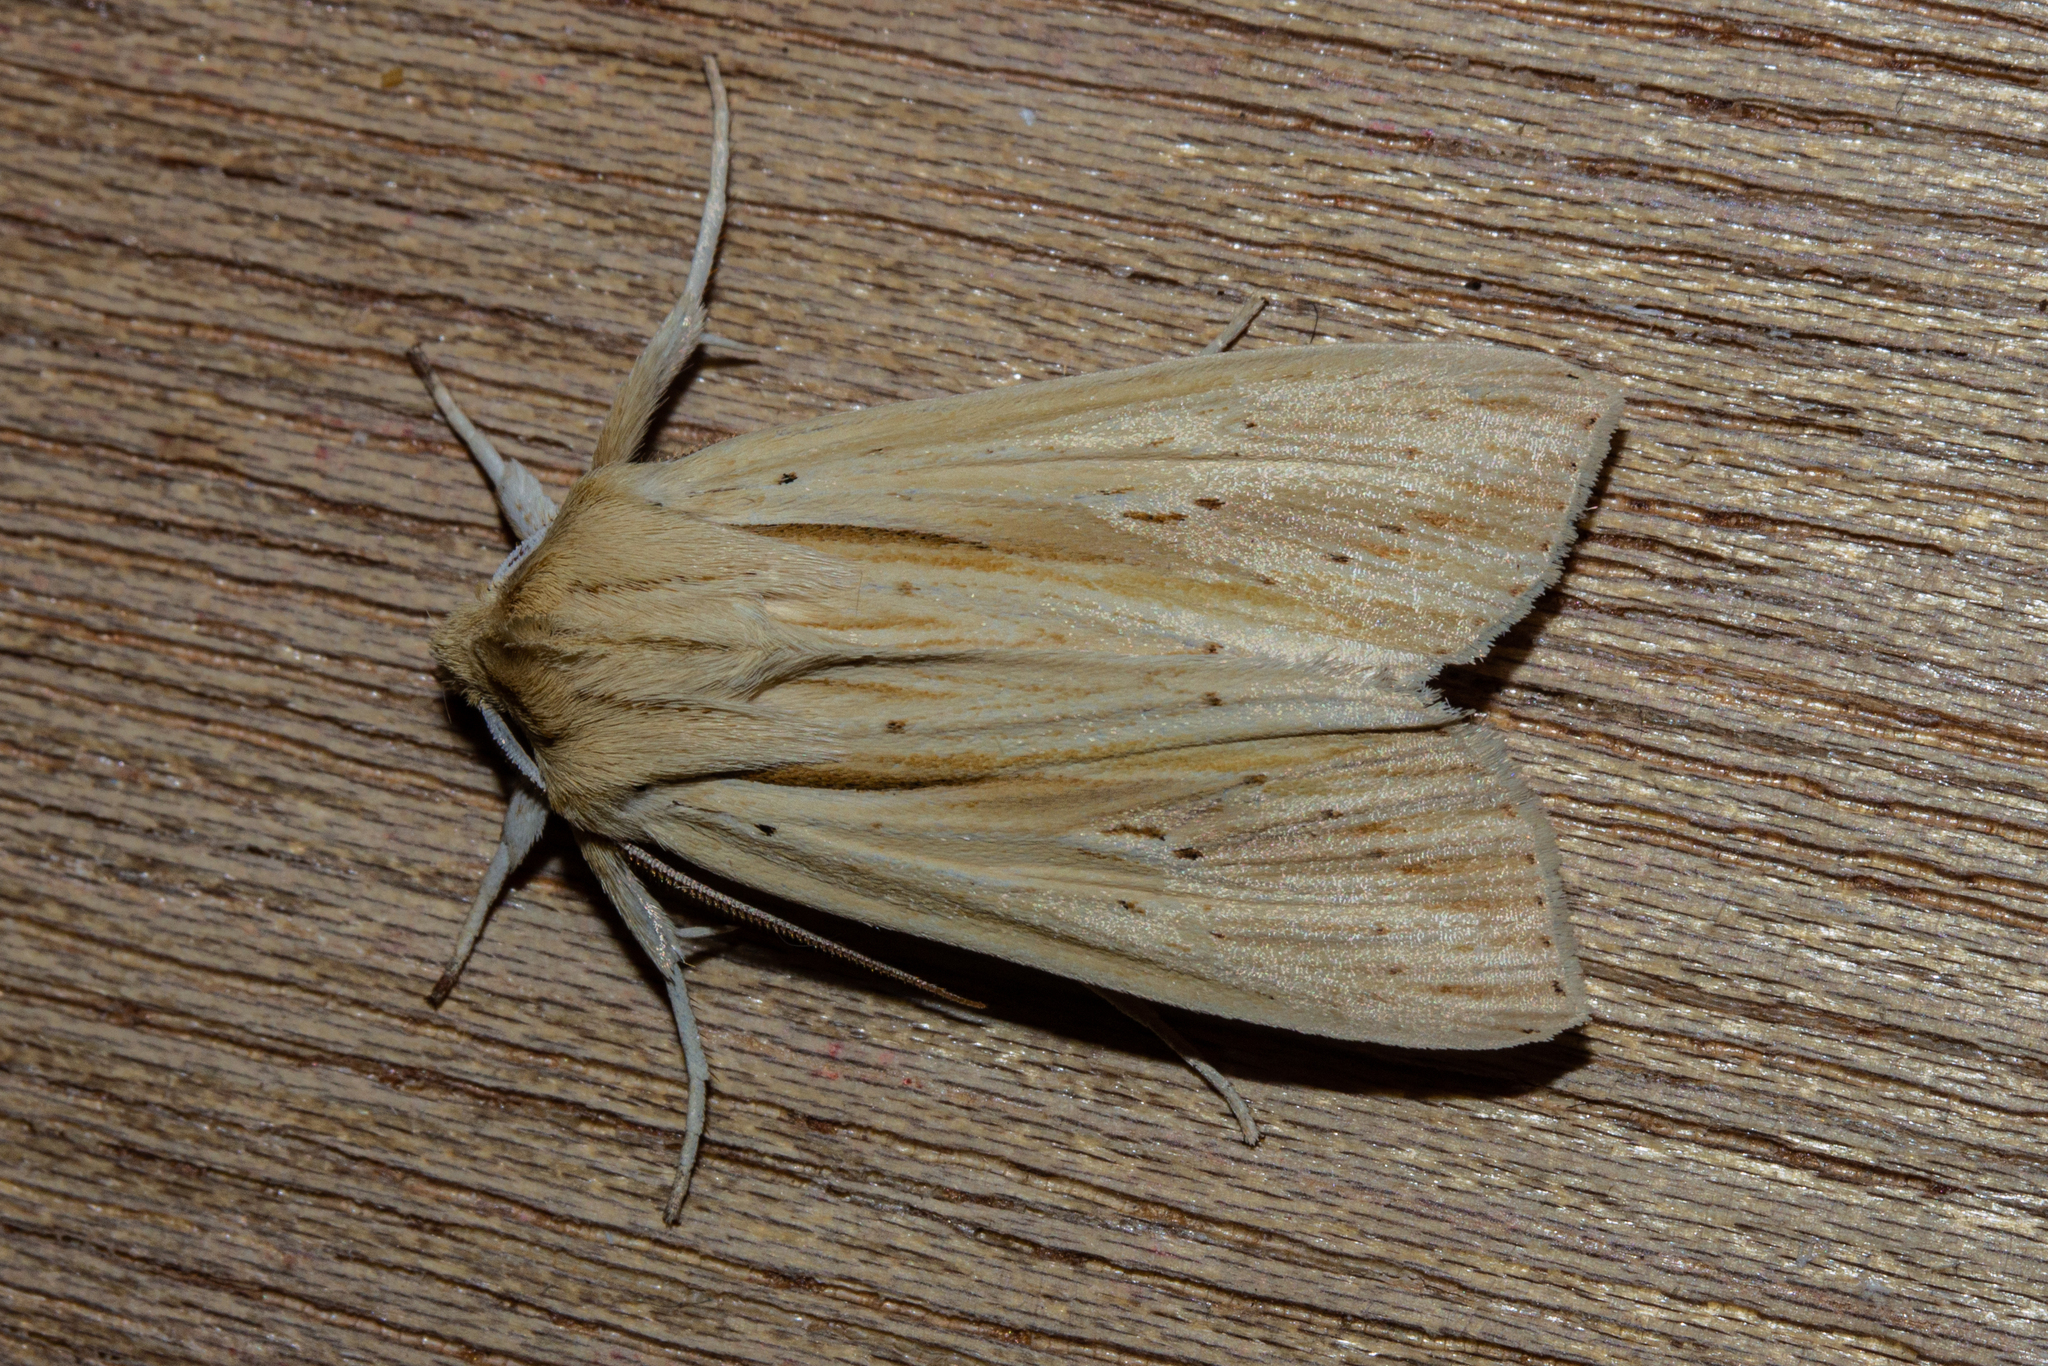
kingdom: Animalia
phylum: Arthropoda
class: Insecta
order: Lepidoptera
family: Noctuidae
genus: Ichneutica
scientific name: Ichneutica semivittata
